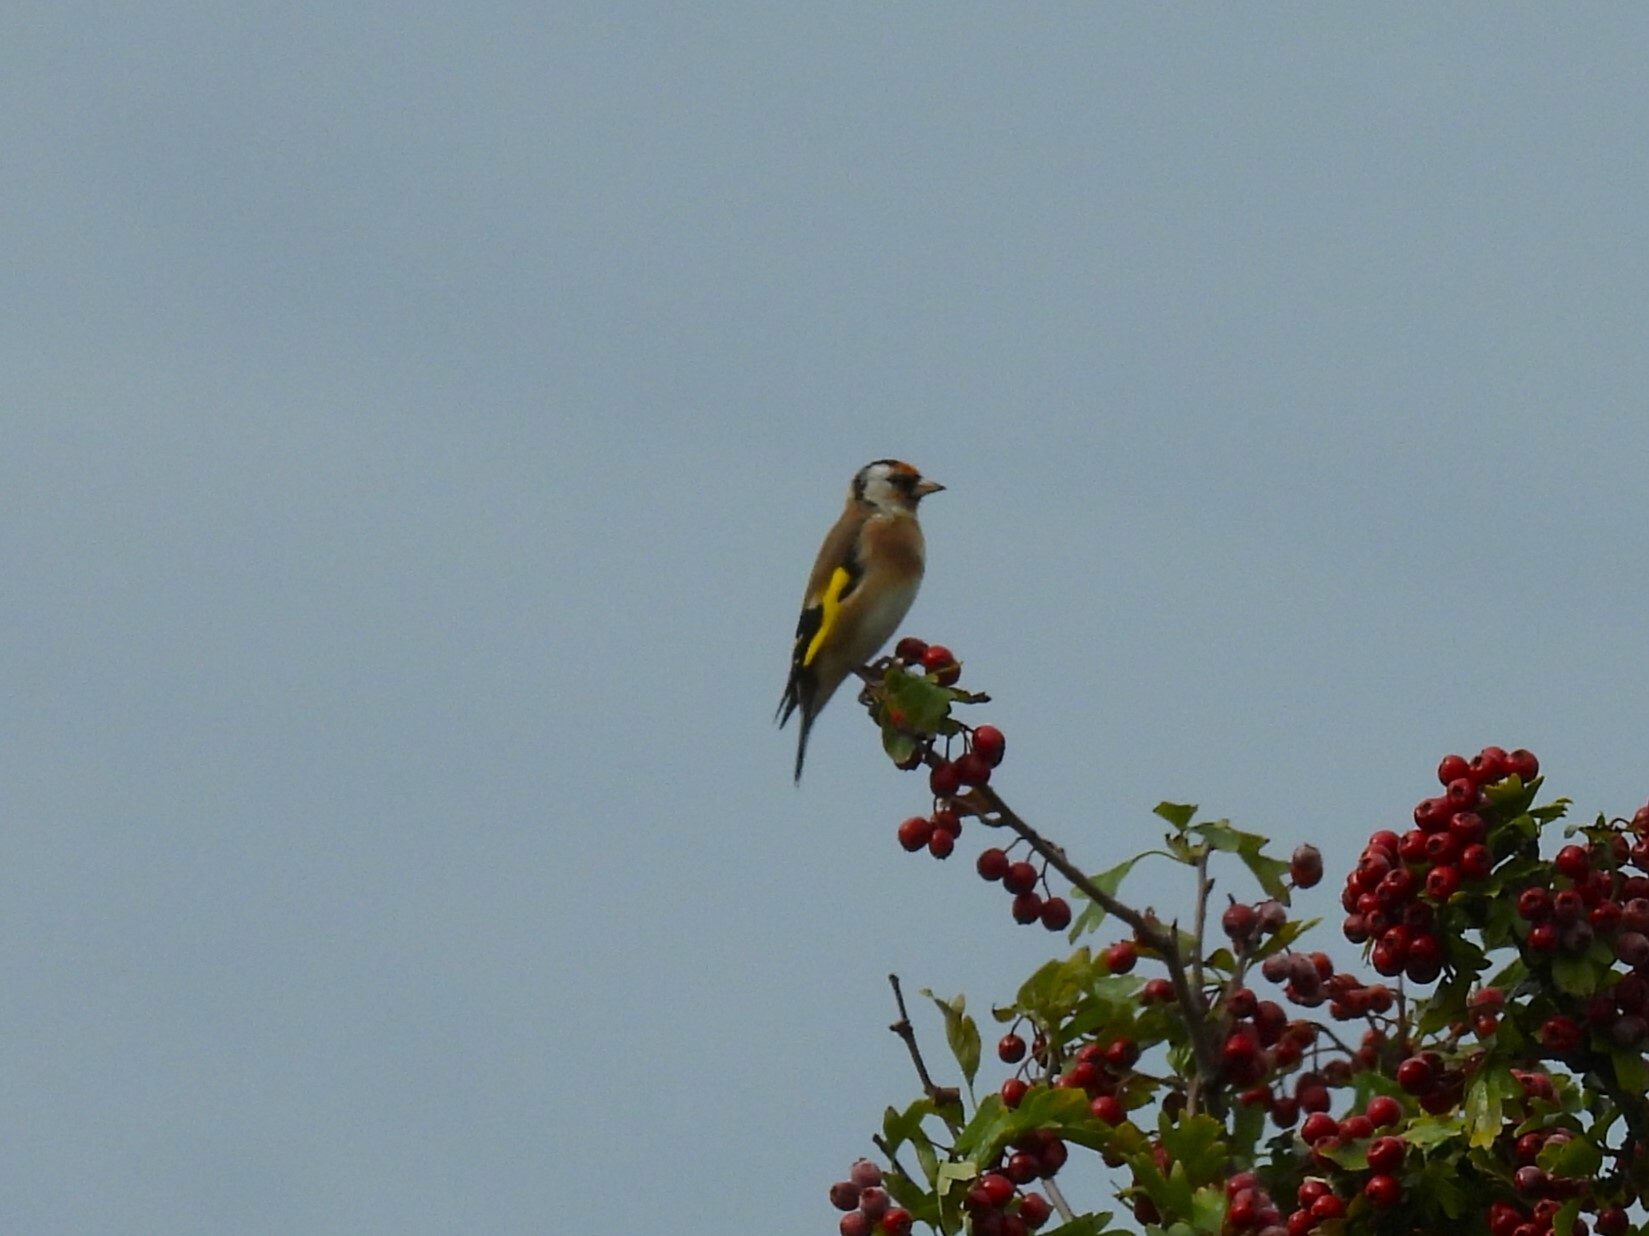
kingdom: Animalia
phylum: Chordata
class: Aves
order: Passeriformes
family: Fringillidae
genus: Carduelis
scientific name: Carduelis carduelis
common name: European goldfinch
